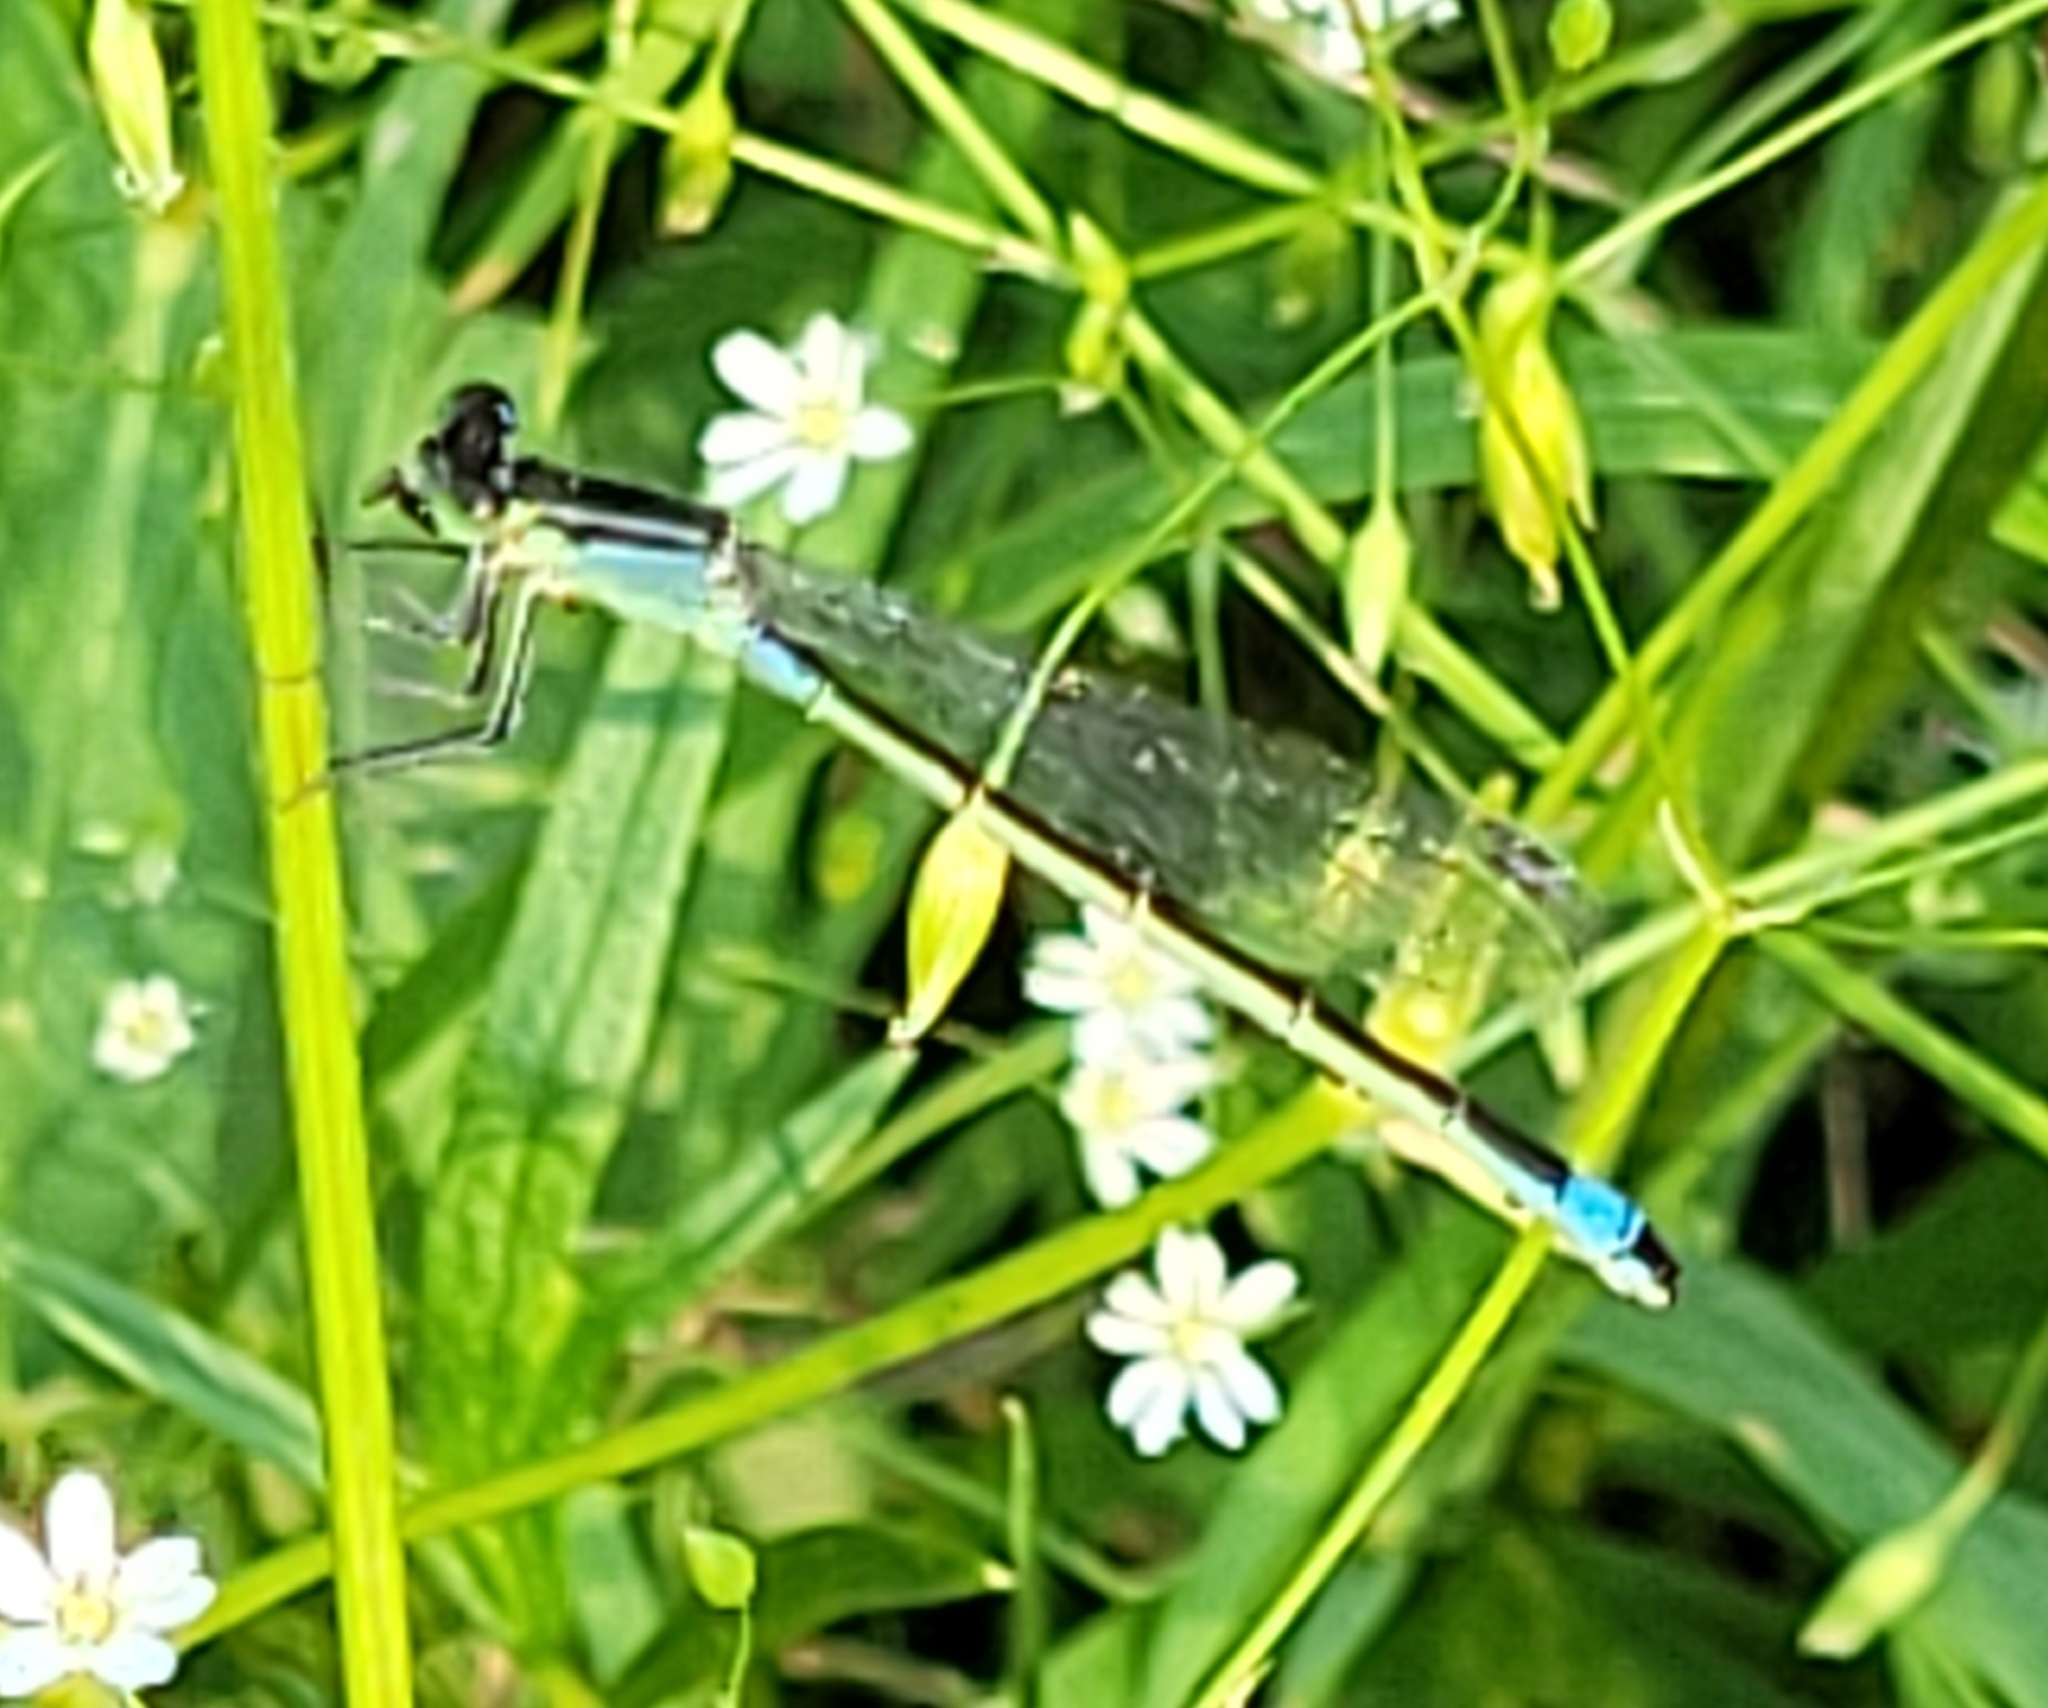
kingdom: Animalia
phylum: Arthropoda
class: Insecta
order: Odonata
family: Coenagrionidae
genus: Ischnura
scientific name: Ischnura elegans
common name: Blue-tailed damselfly
